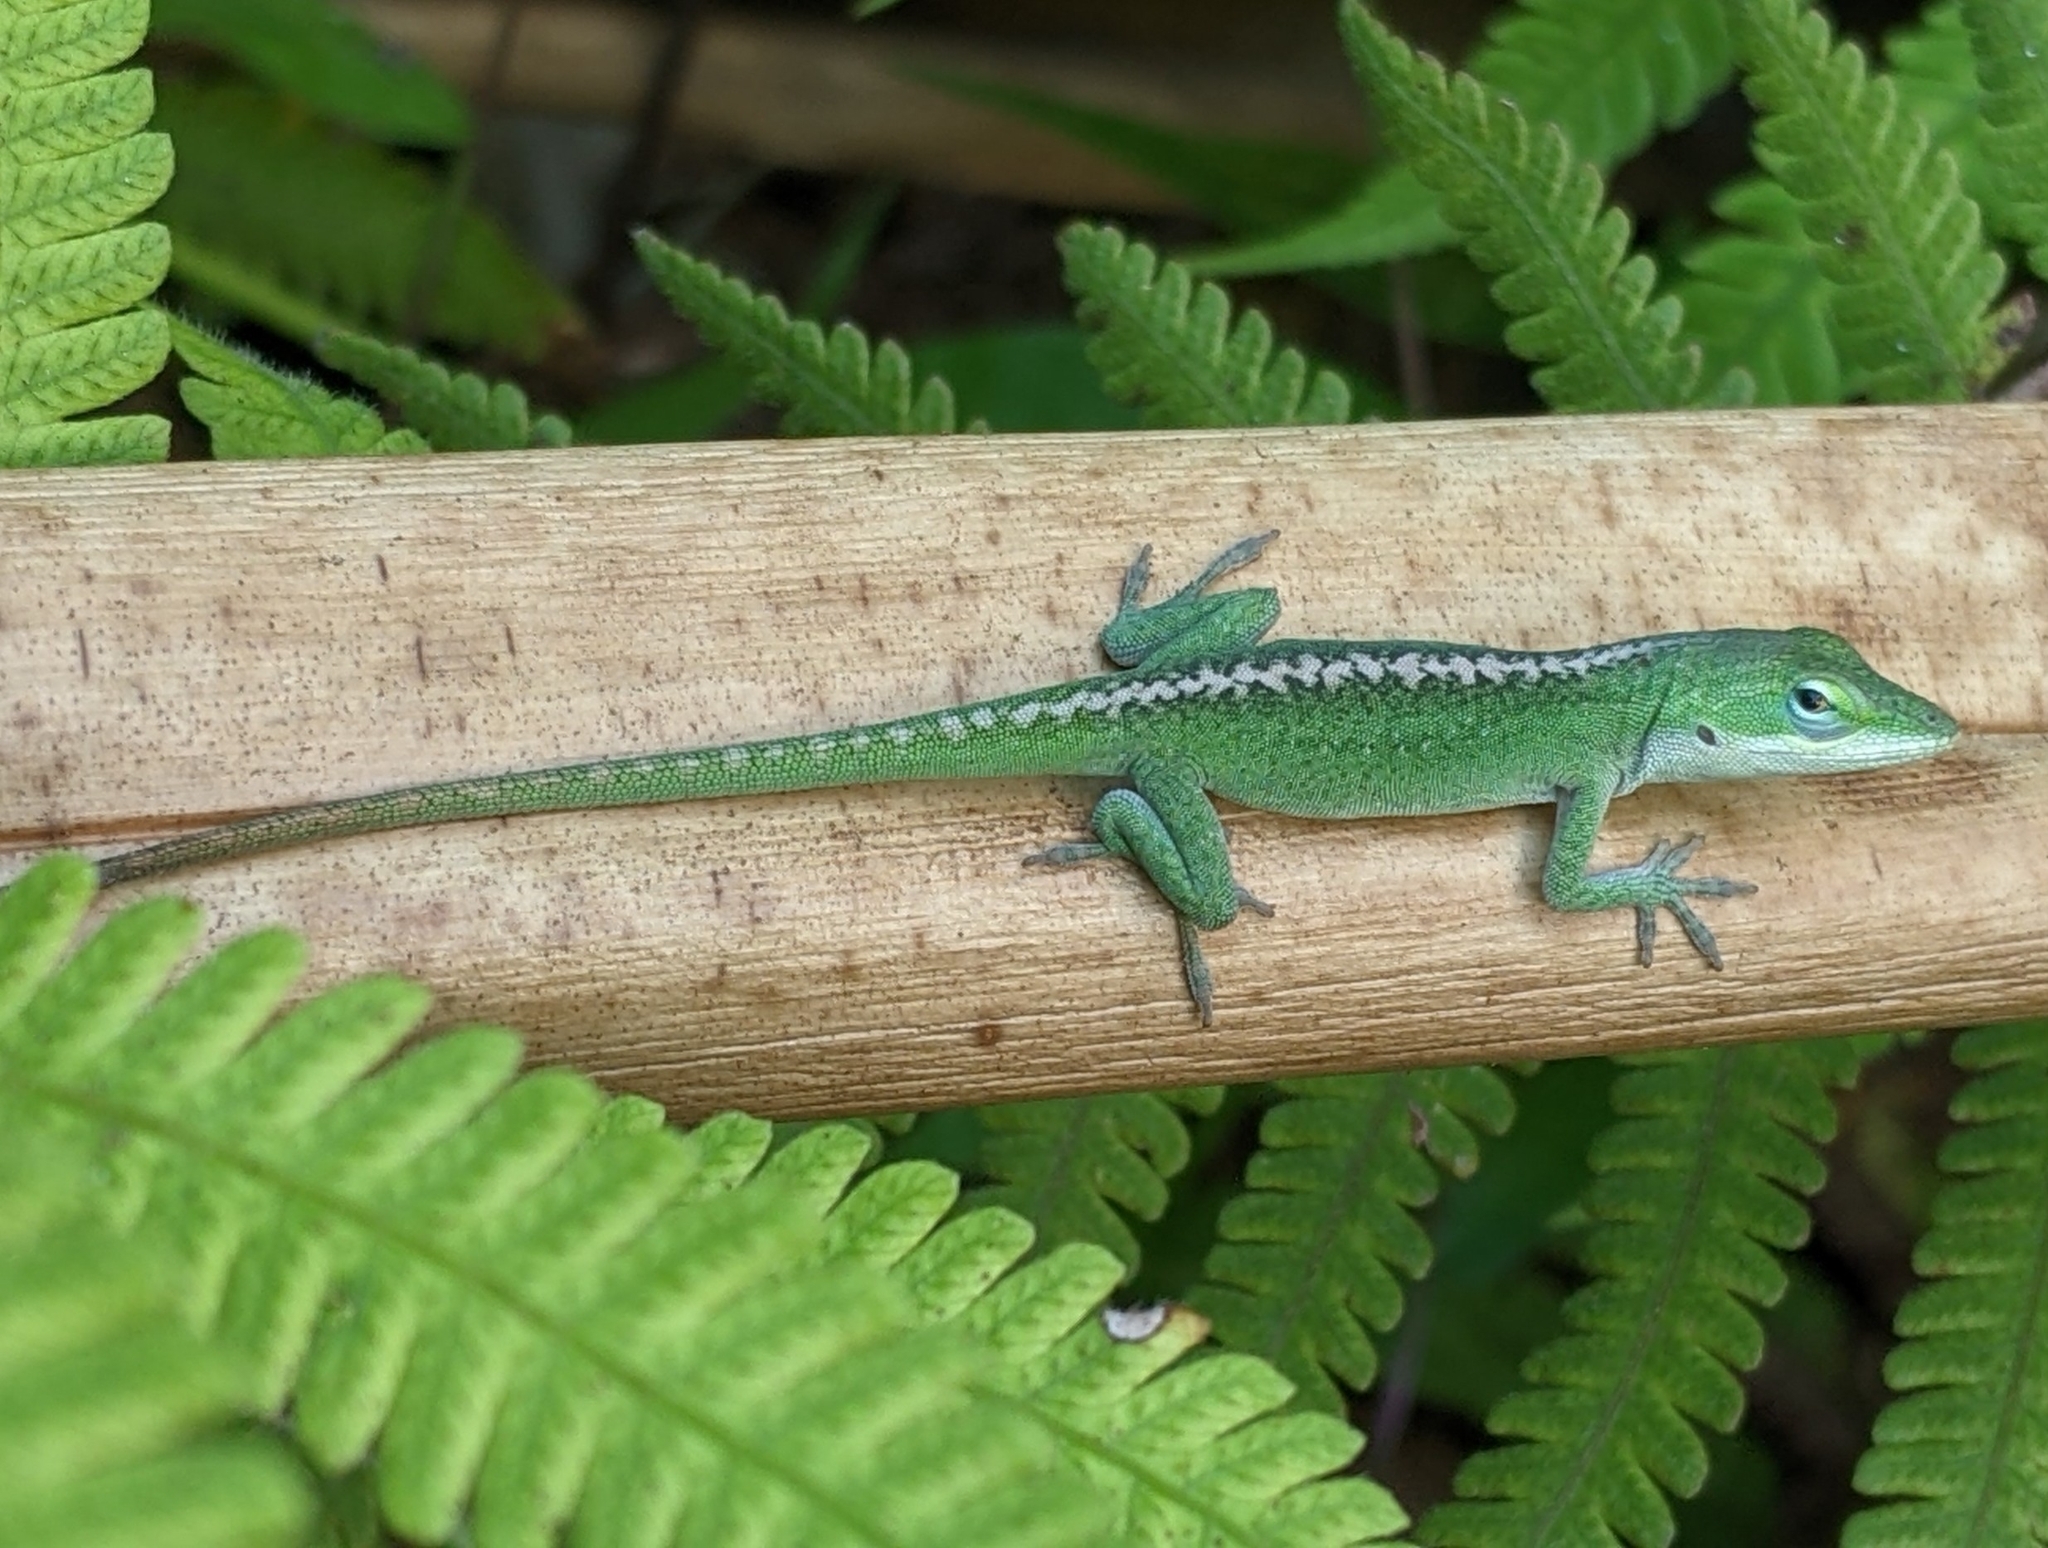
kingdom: Animalia
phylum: Chordata
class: Squamata
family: Dactyloidae
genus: Anolis
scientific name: Anolis carolinensis
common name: Green anole
